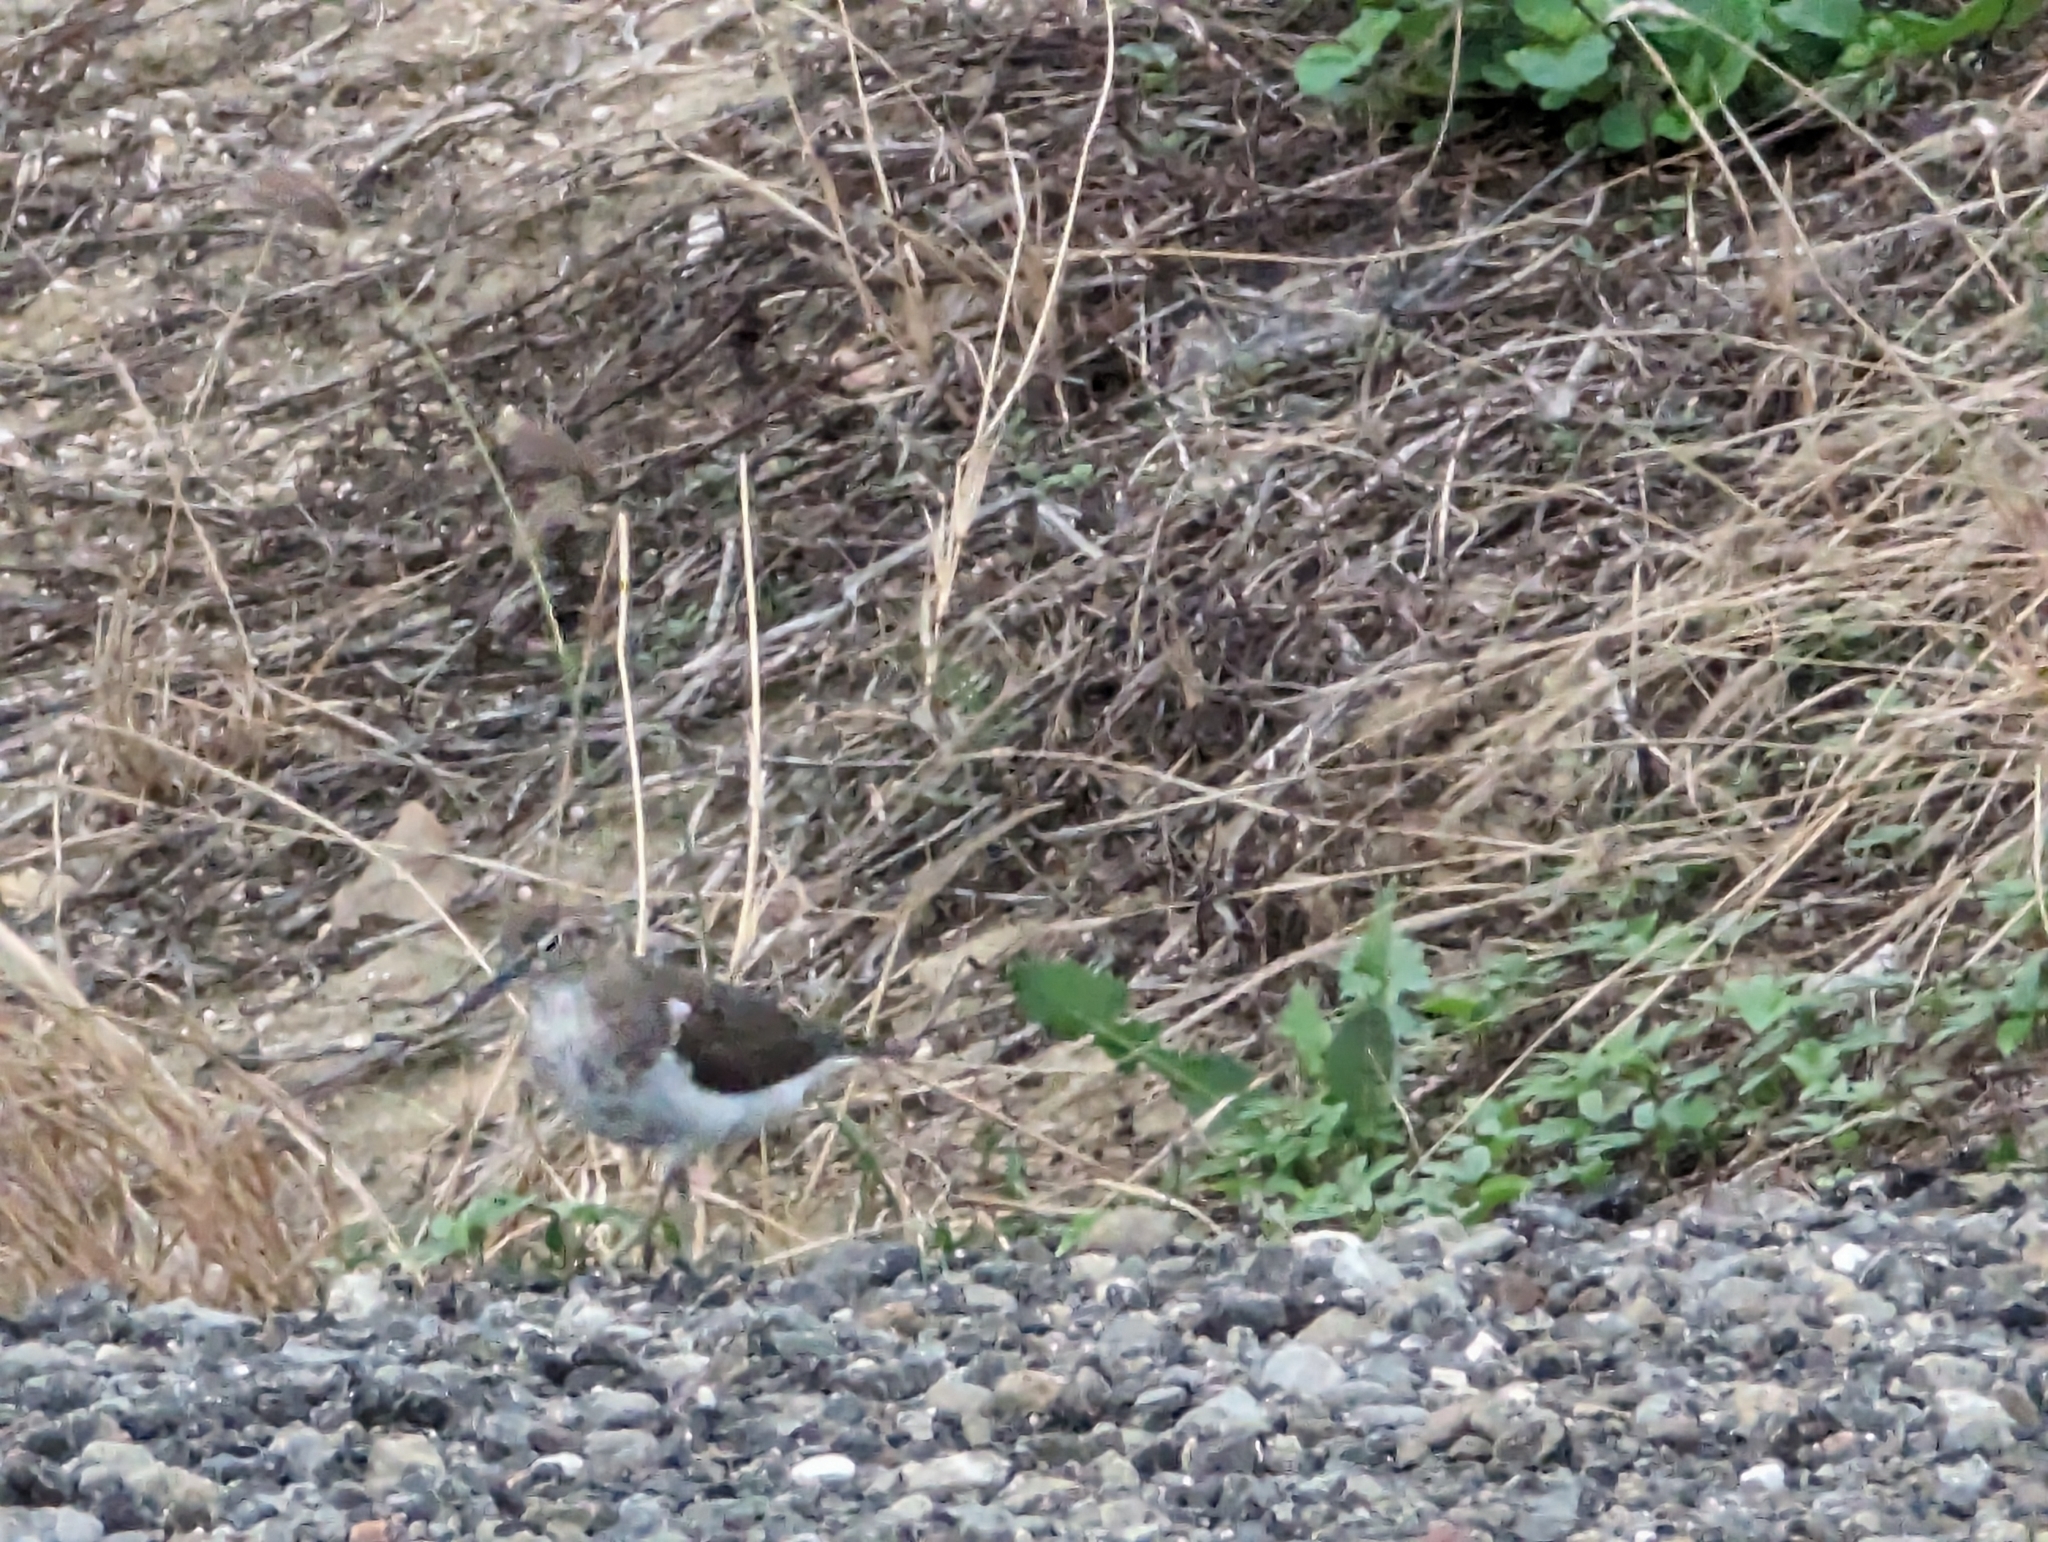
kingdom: Animalia
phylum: Chordata
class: Aves
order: Charadriiformes
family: Scolopacidae
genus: Actitis
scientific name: Actitis hypoleucos
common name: Common sandpiper
